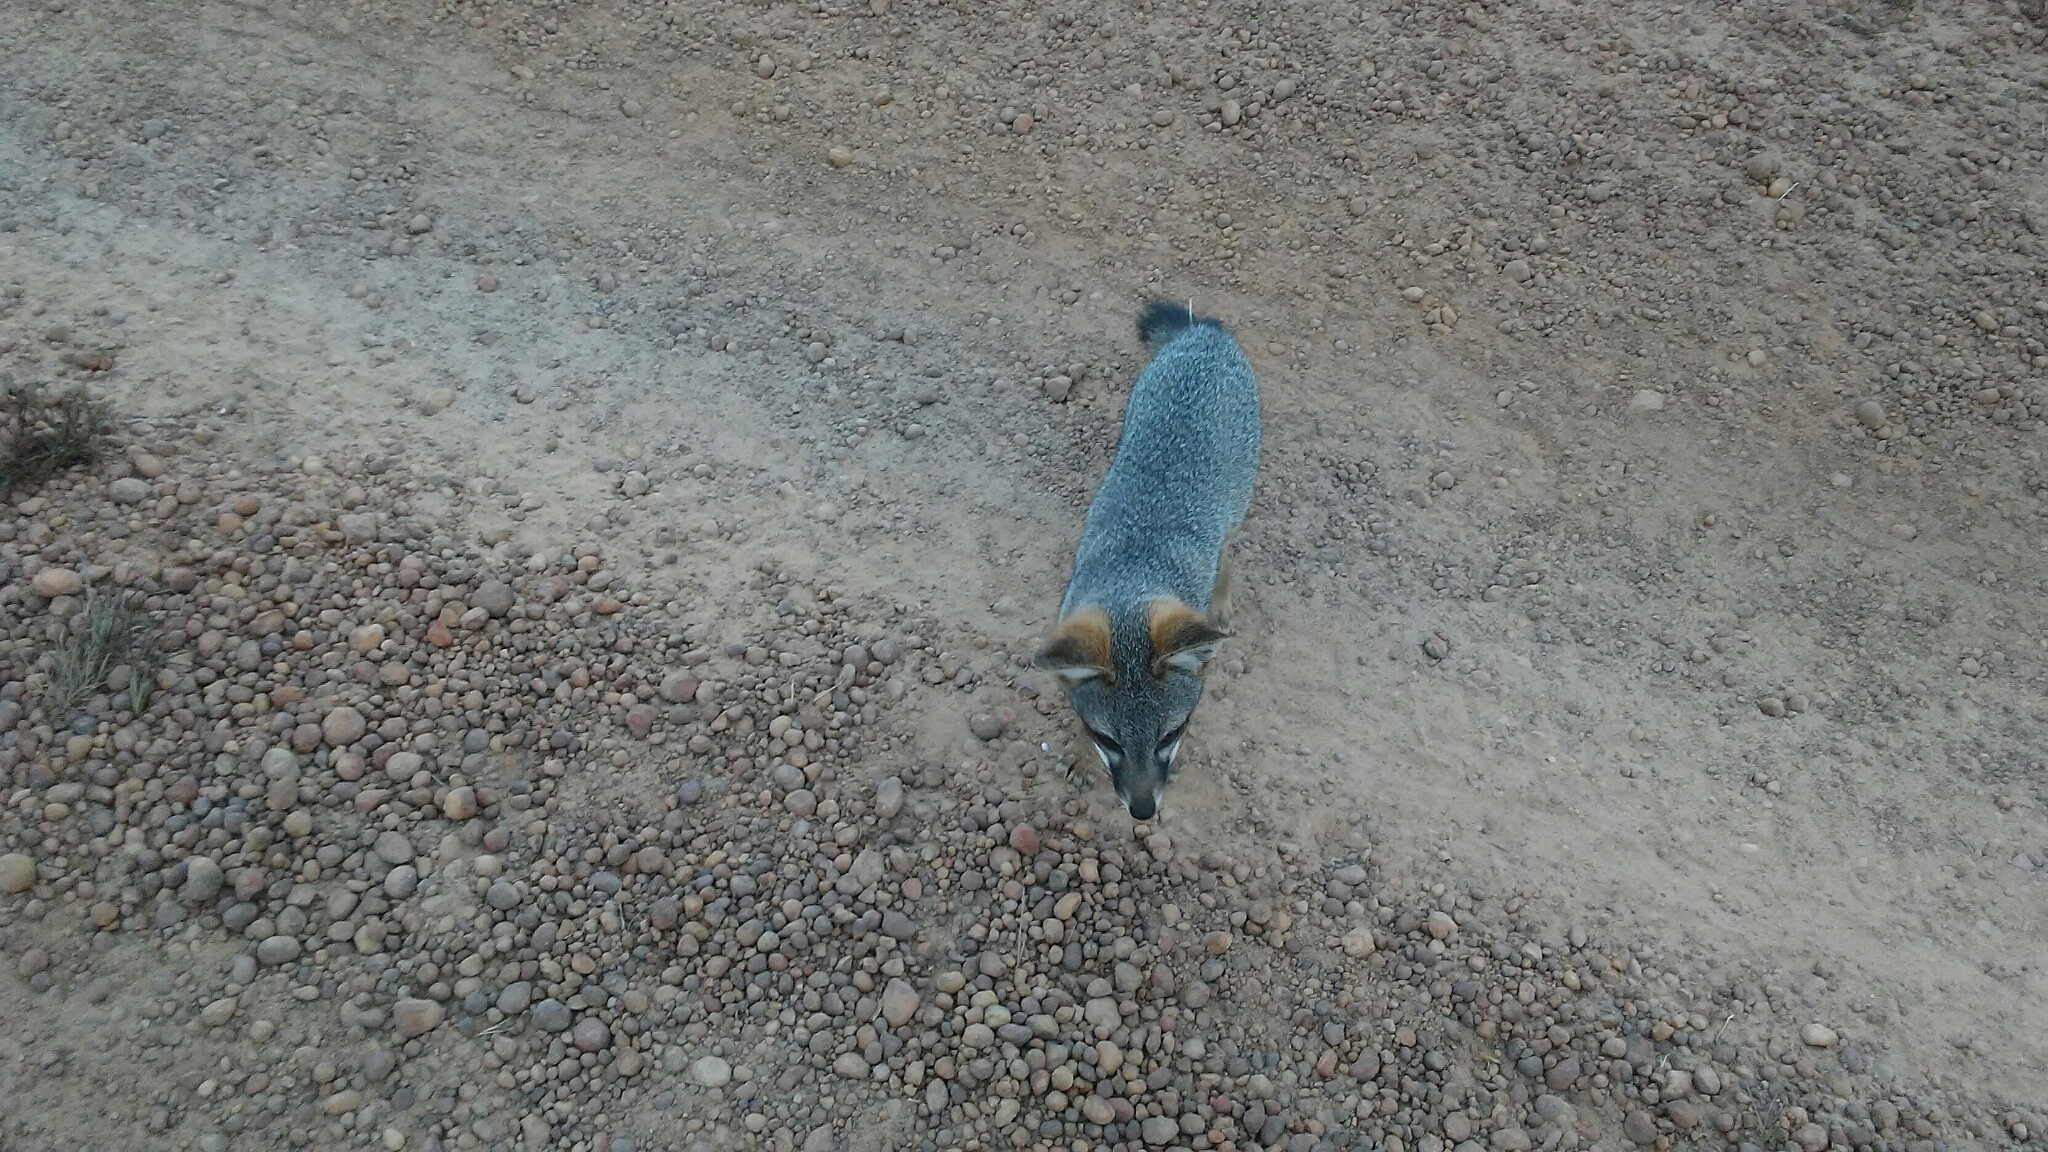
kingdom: Animalia
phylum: Chordata
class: Mammalia
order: Carnivora
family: Canidae
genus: Urocyon
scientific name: Urocyon littoralis
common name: Island gray fox
